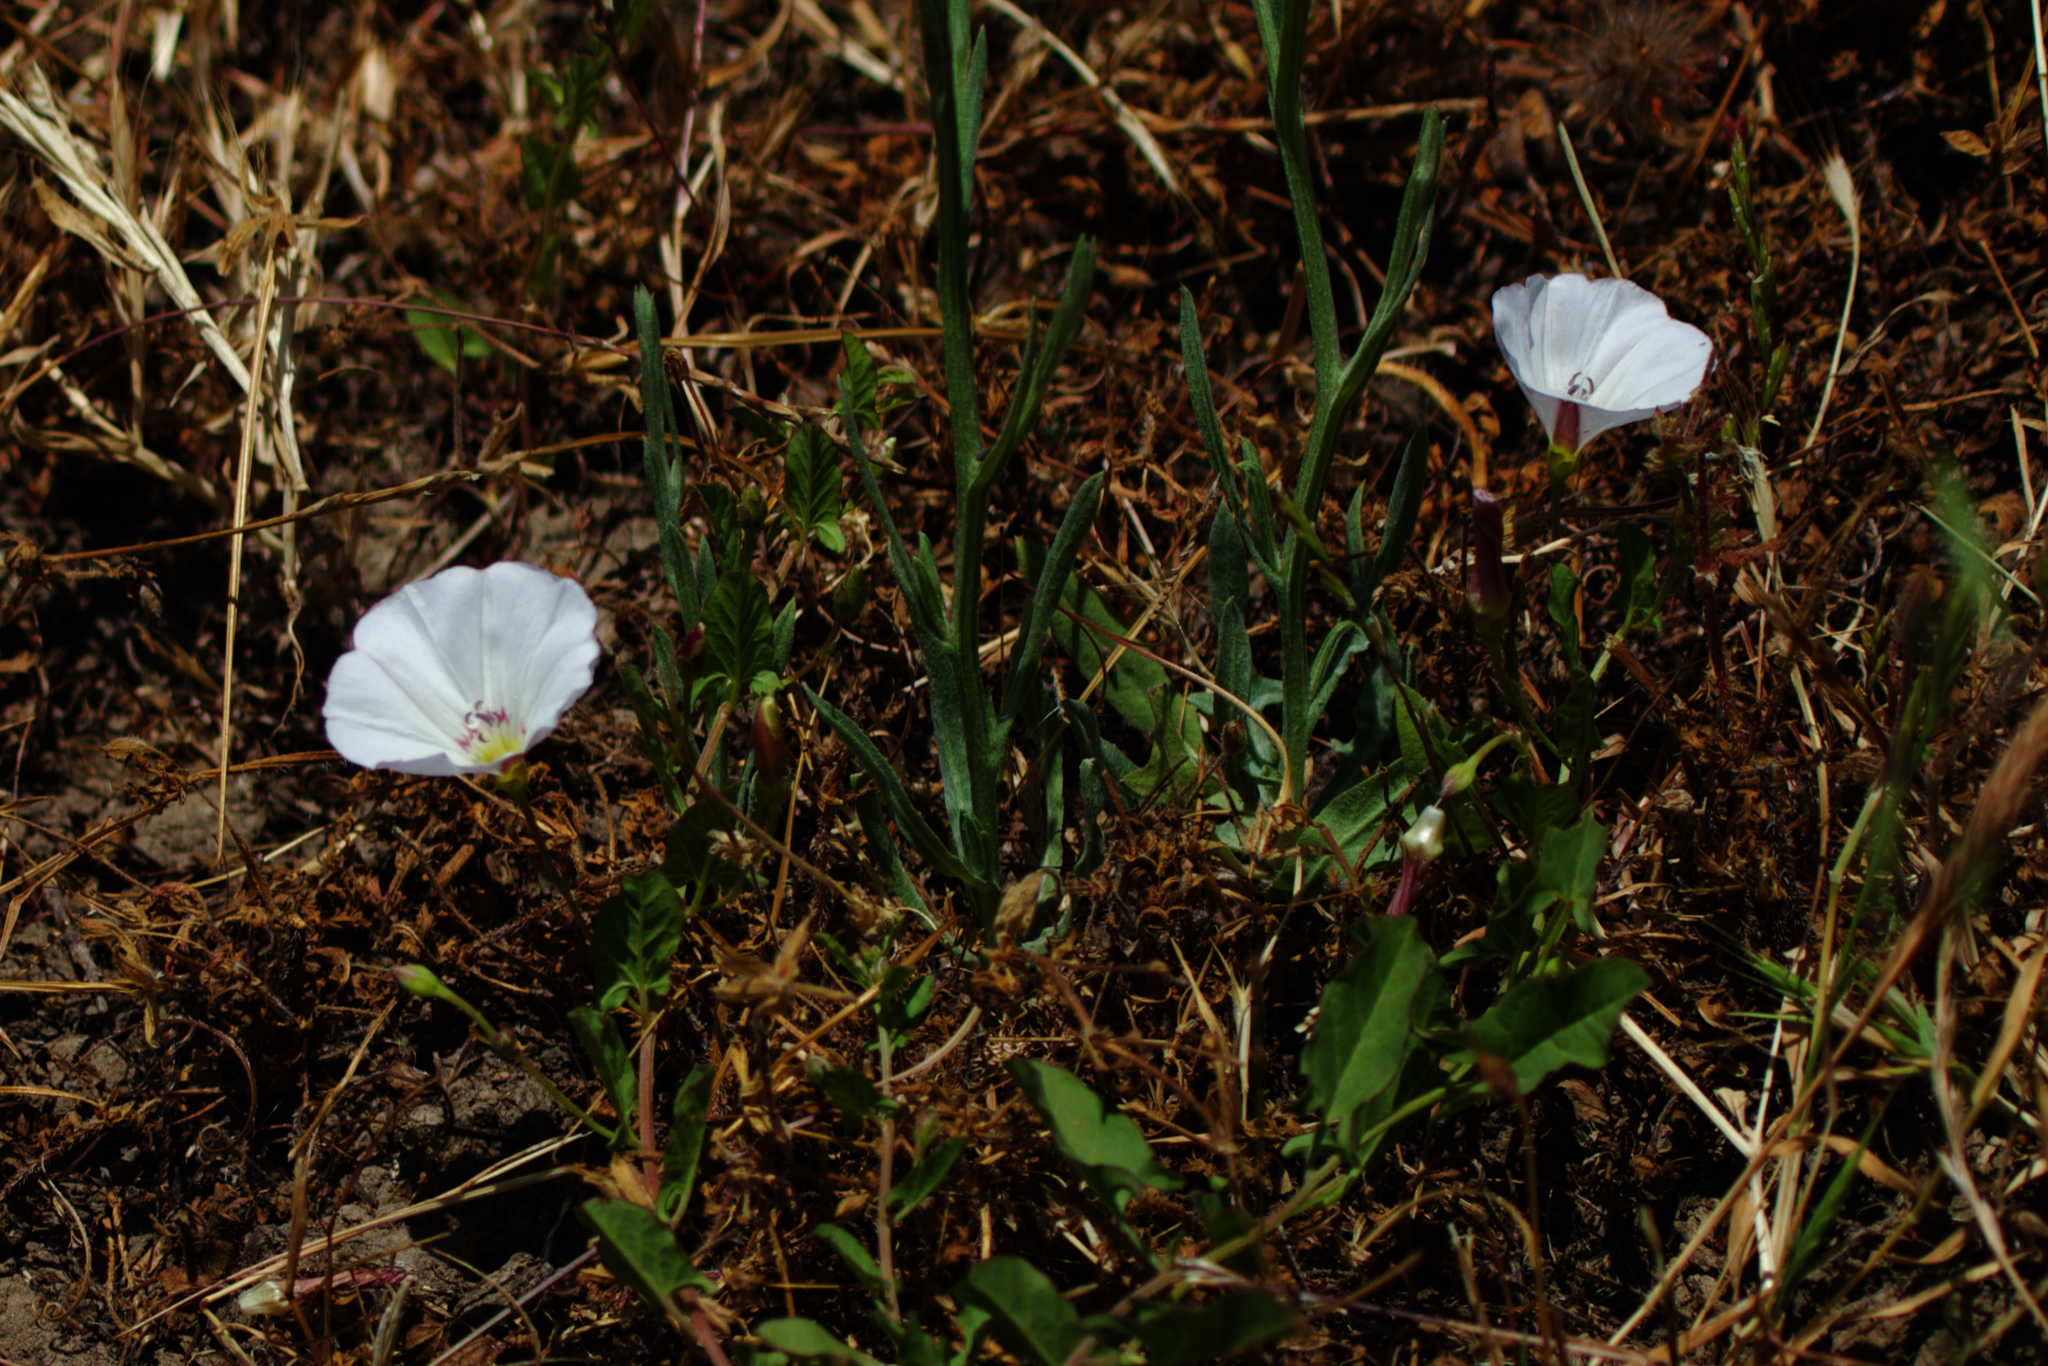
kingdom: Plantae
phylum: Tracheophyta
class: Magnoliopsida
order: Solanales
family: Convolvulaceae
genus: Convolvulus
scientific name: Convolvulus arvensis
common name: Field bindweed
